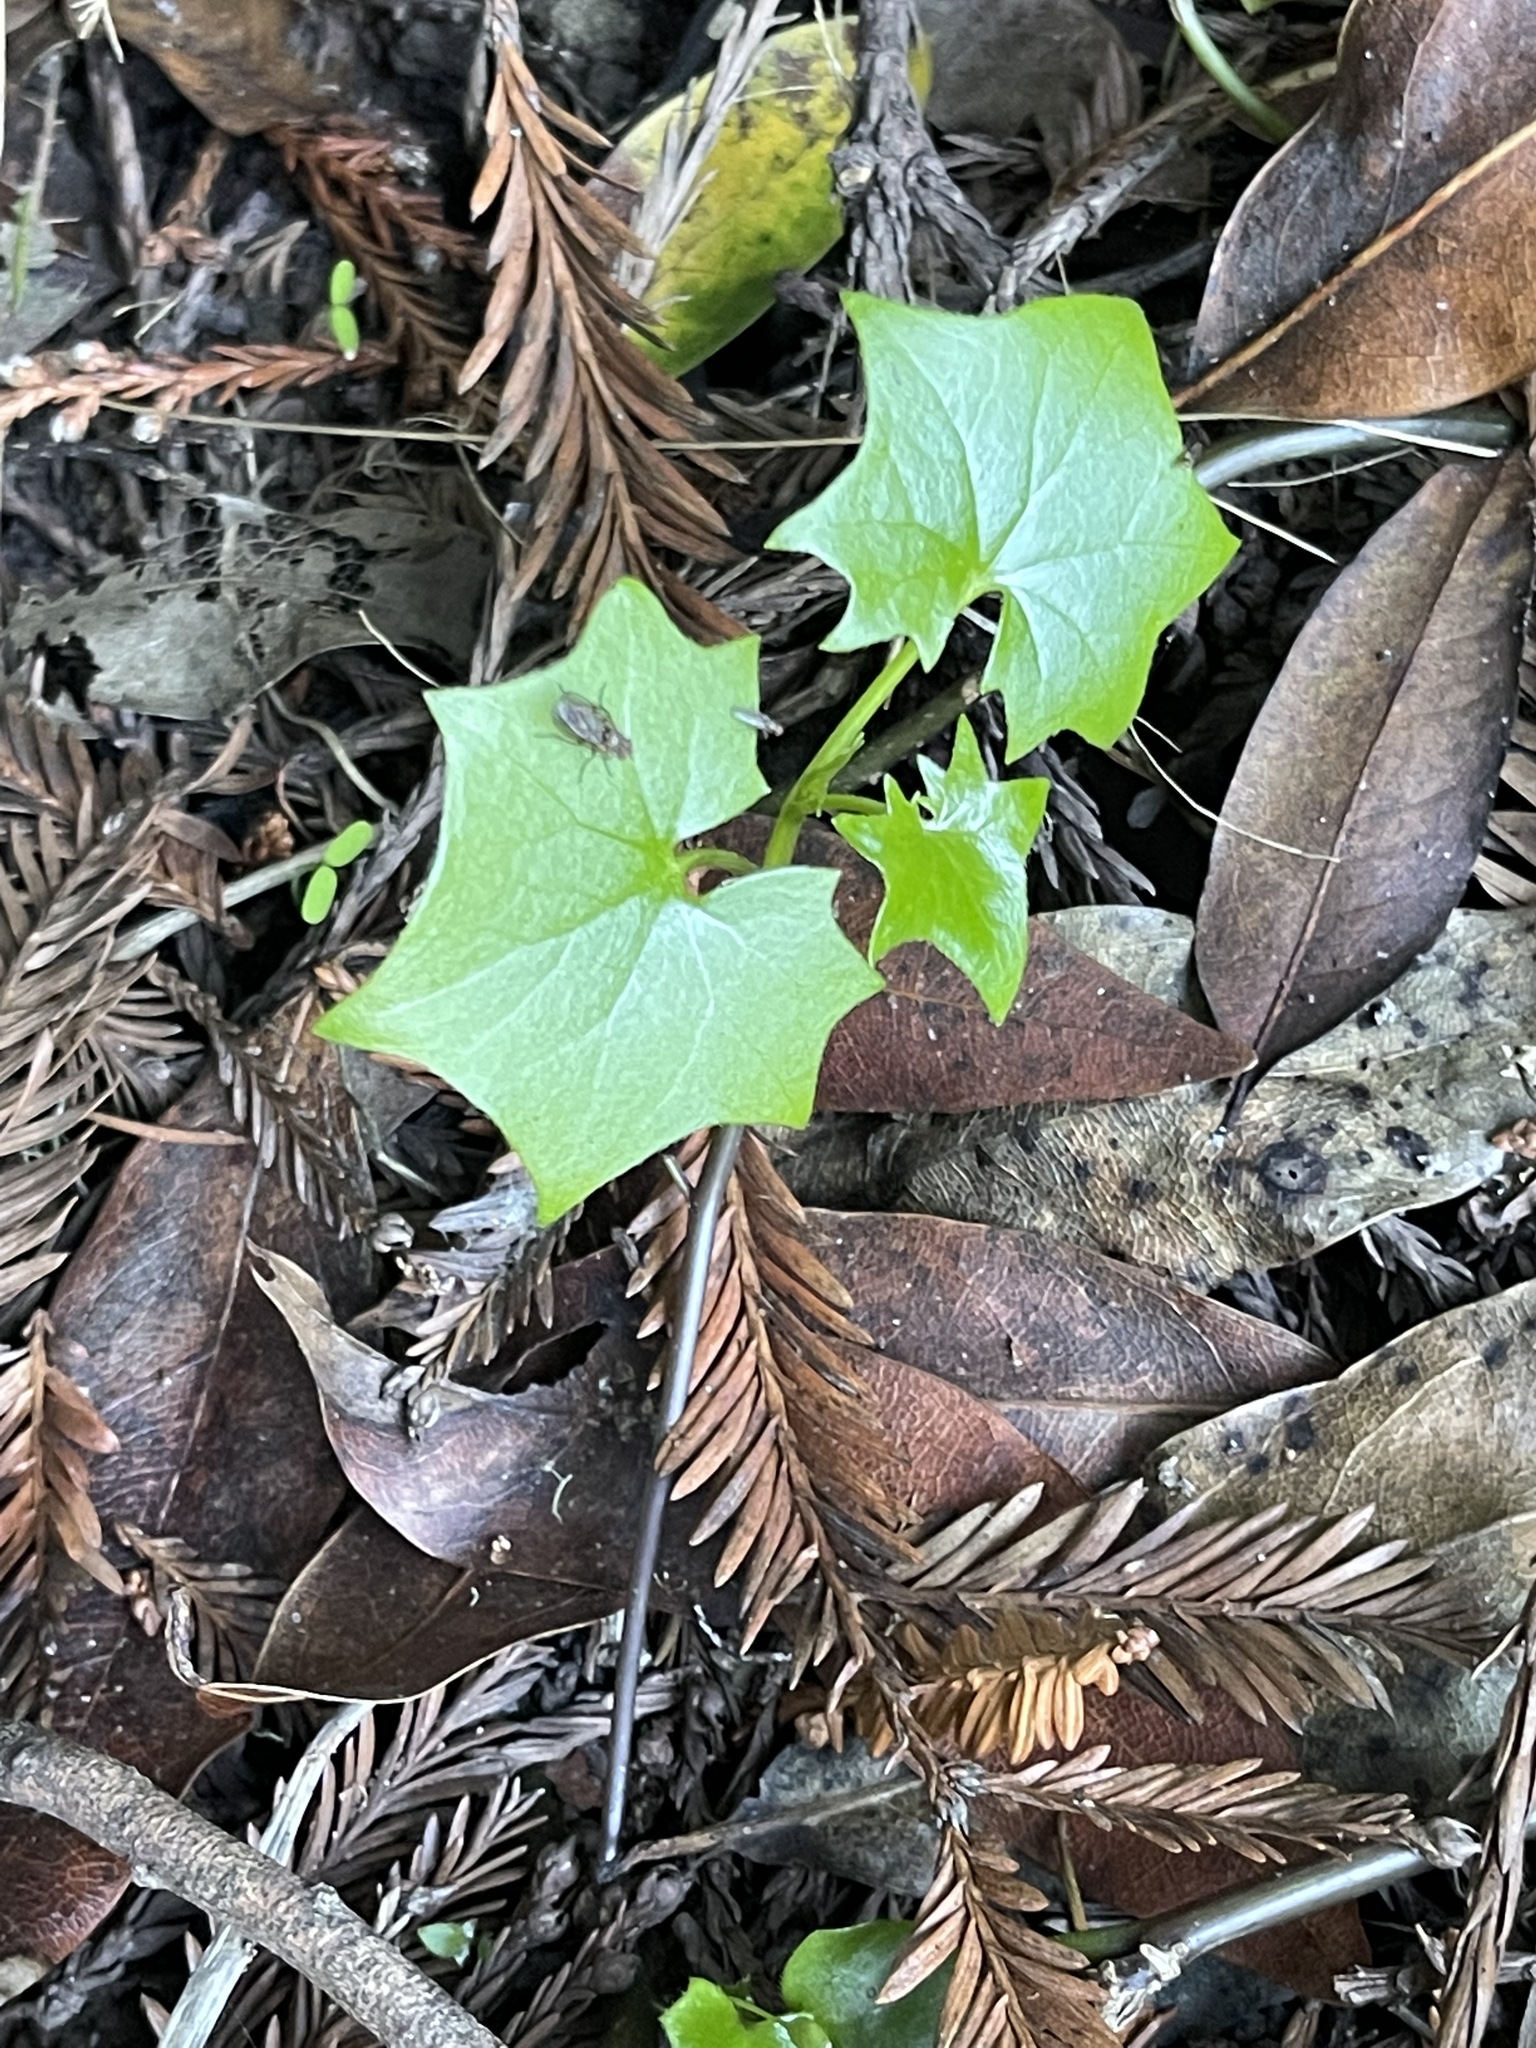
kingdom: Plantae
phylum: Tracheophyta
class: Magnoliopsida
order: Asterales
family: Asteraceae
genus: Delairea
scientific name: Delairea odorata
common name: Cape-ivy
